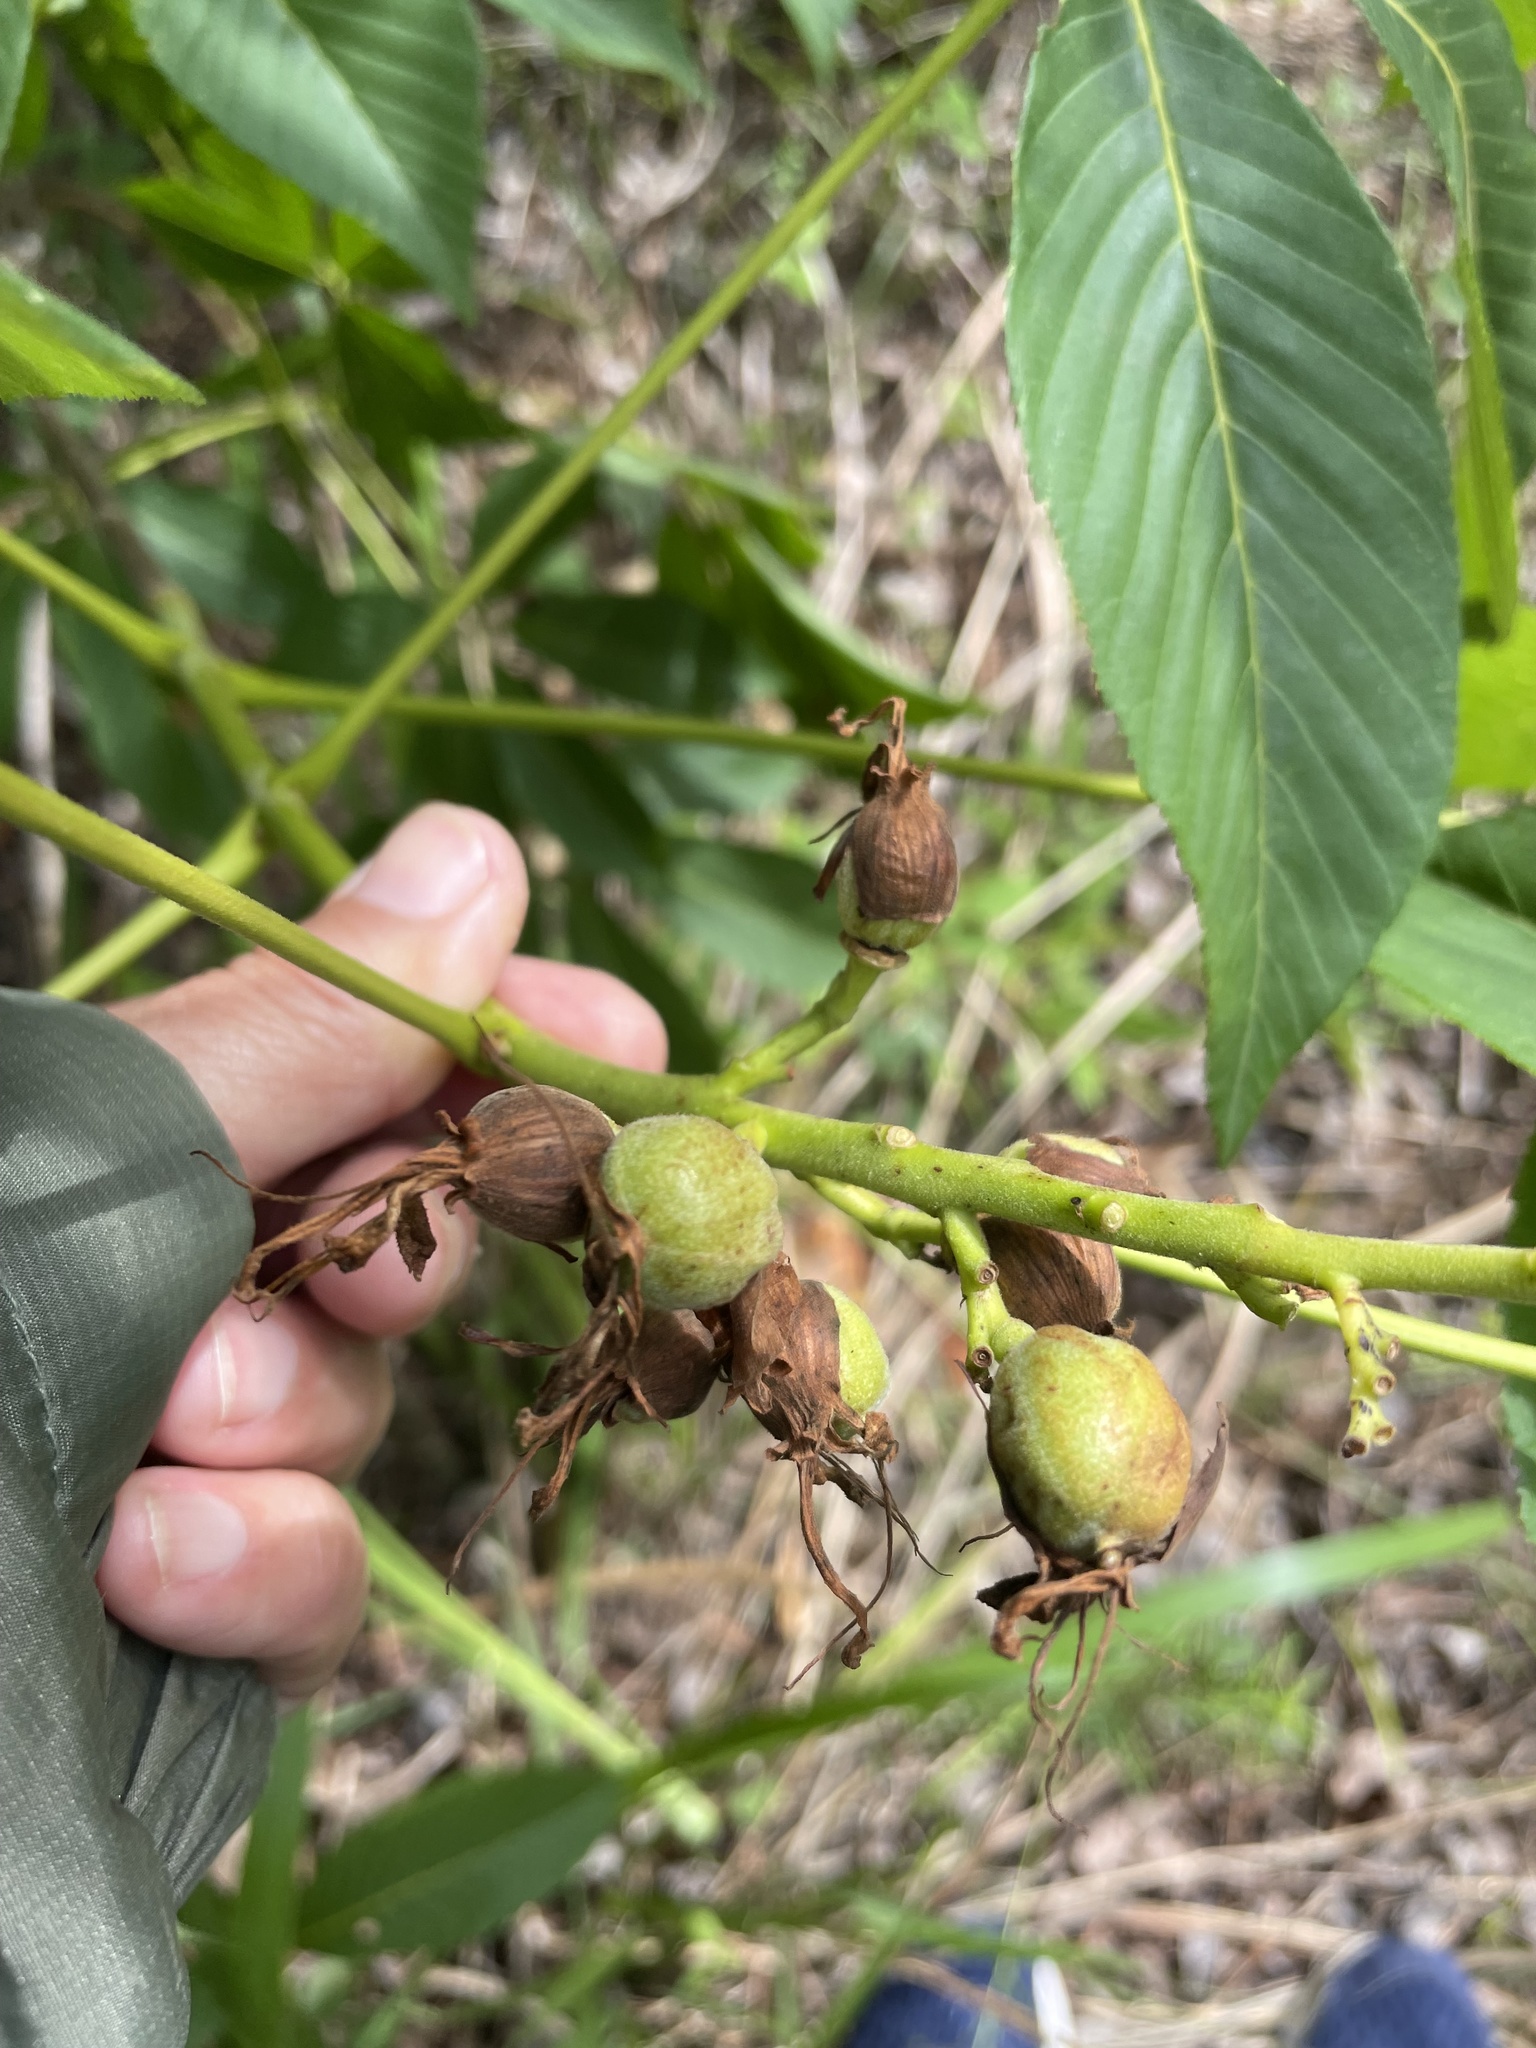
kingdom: Plantae
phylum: Tracheophyta
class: Magnoliopsida
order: Sapindales
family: Sapindaceae
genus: Aesculus
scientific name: Aesculus sylvatica
